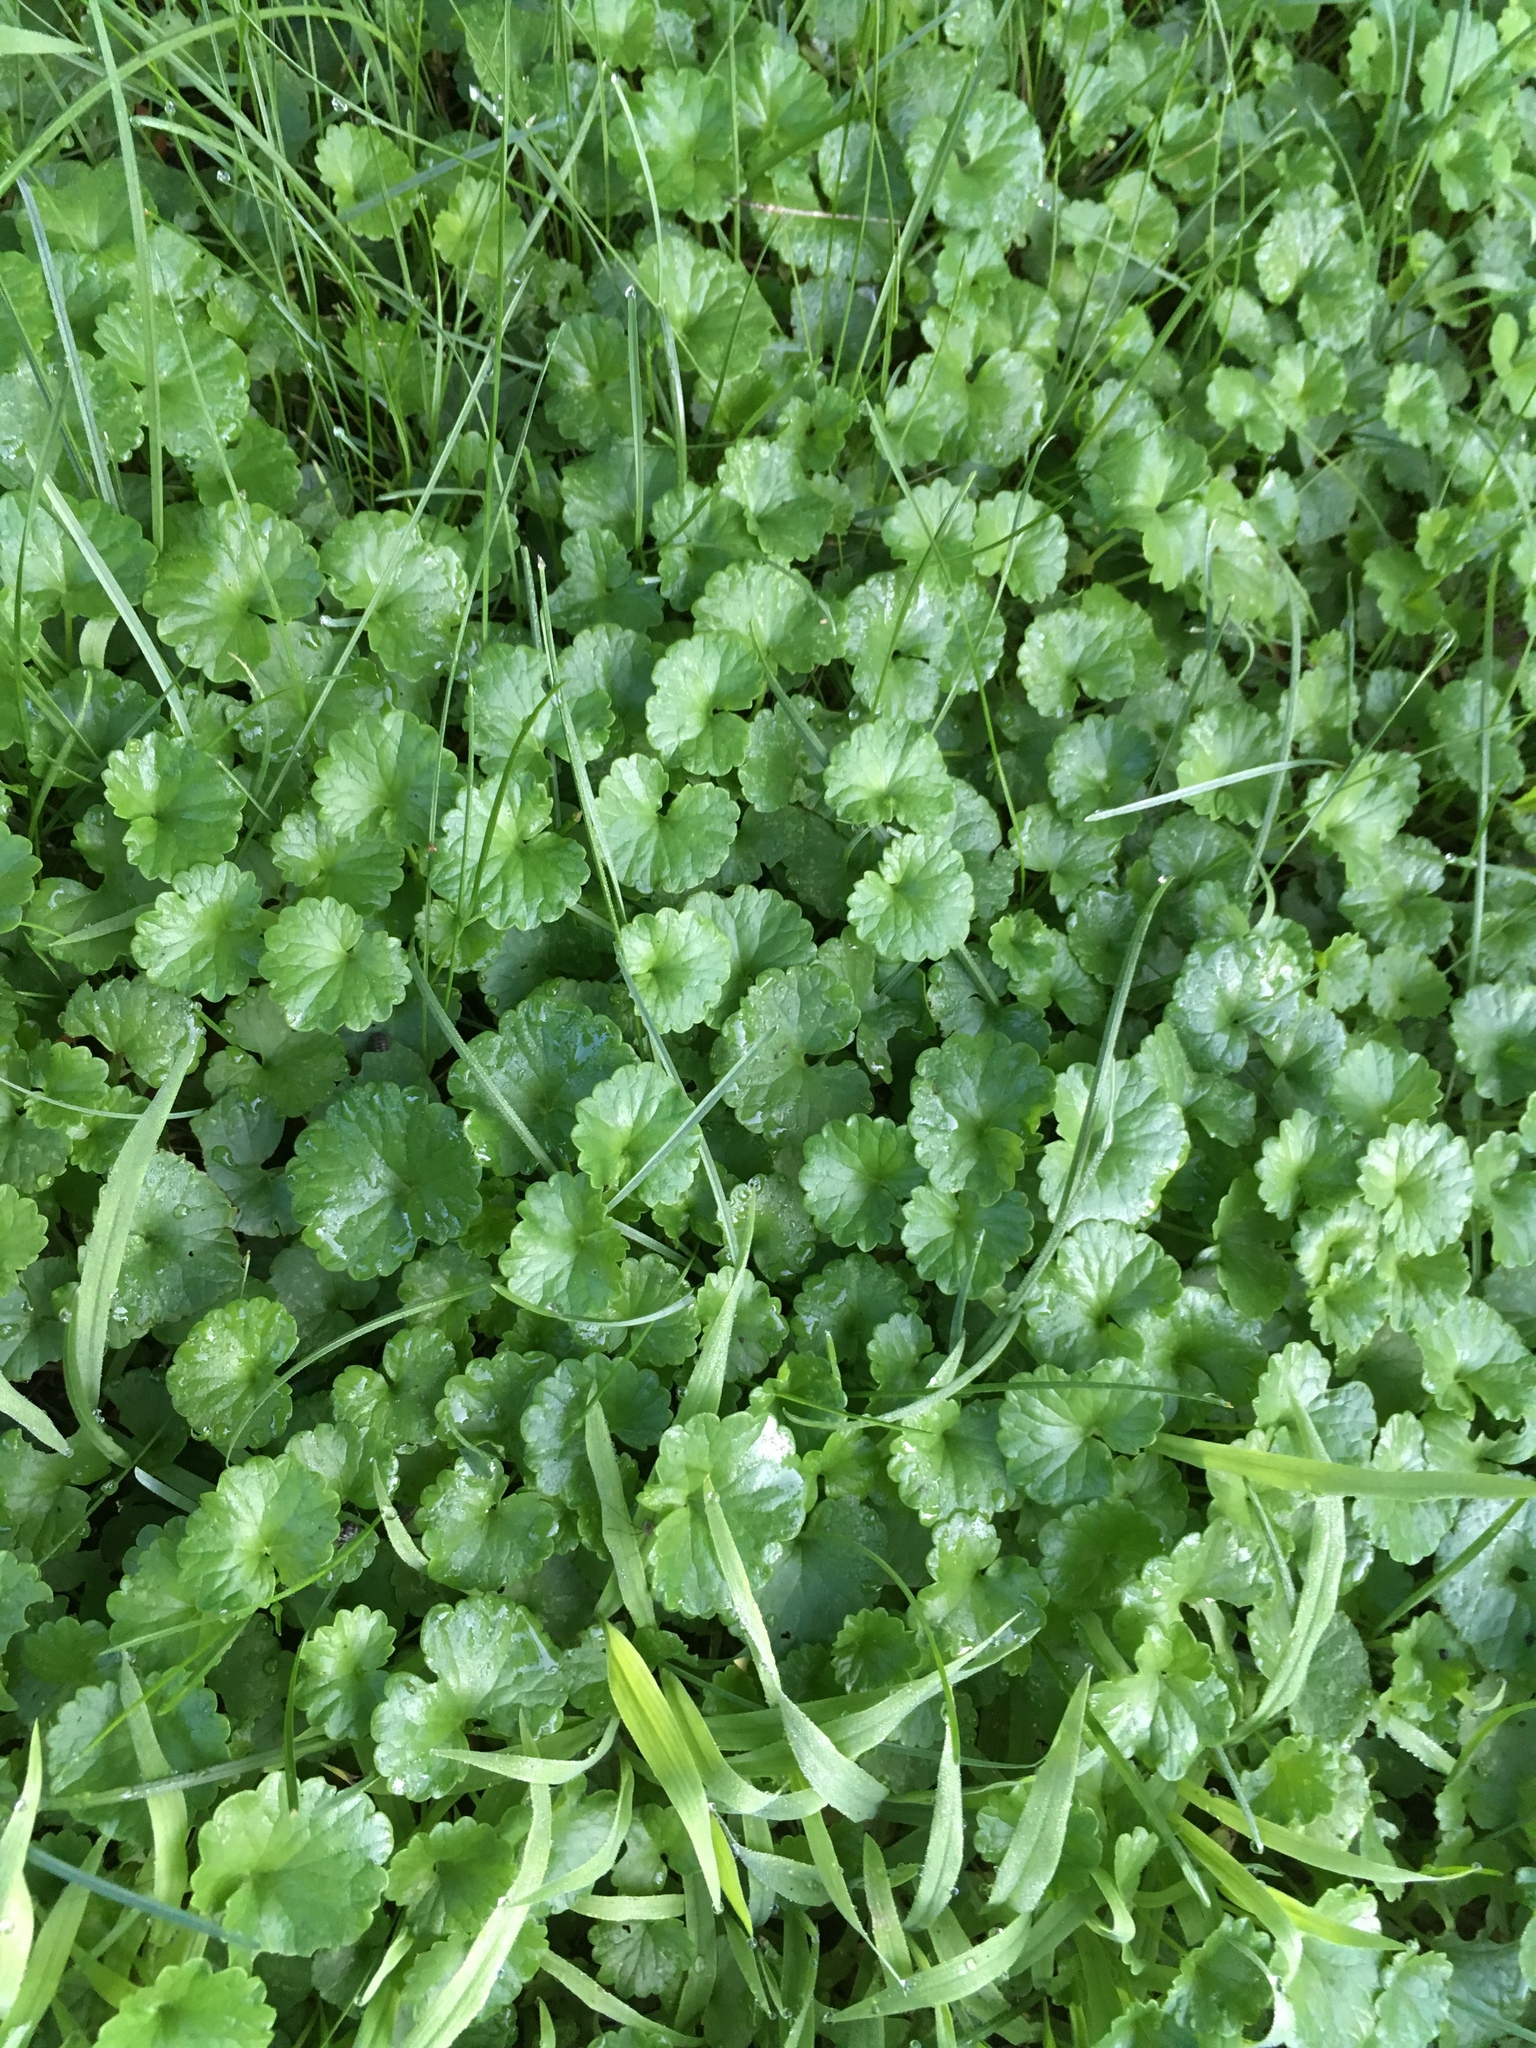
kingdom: Plantae
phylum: Tracheophyta
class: Magnoliopsida
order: Lamiales
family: Lamiaceae
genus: Glechoma
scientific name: Glechoma hederacea
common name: Ground ivy
